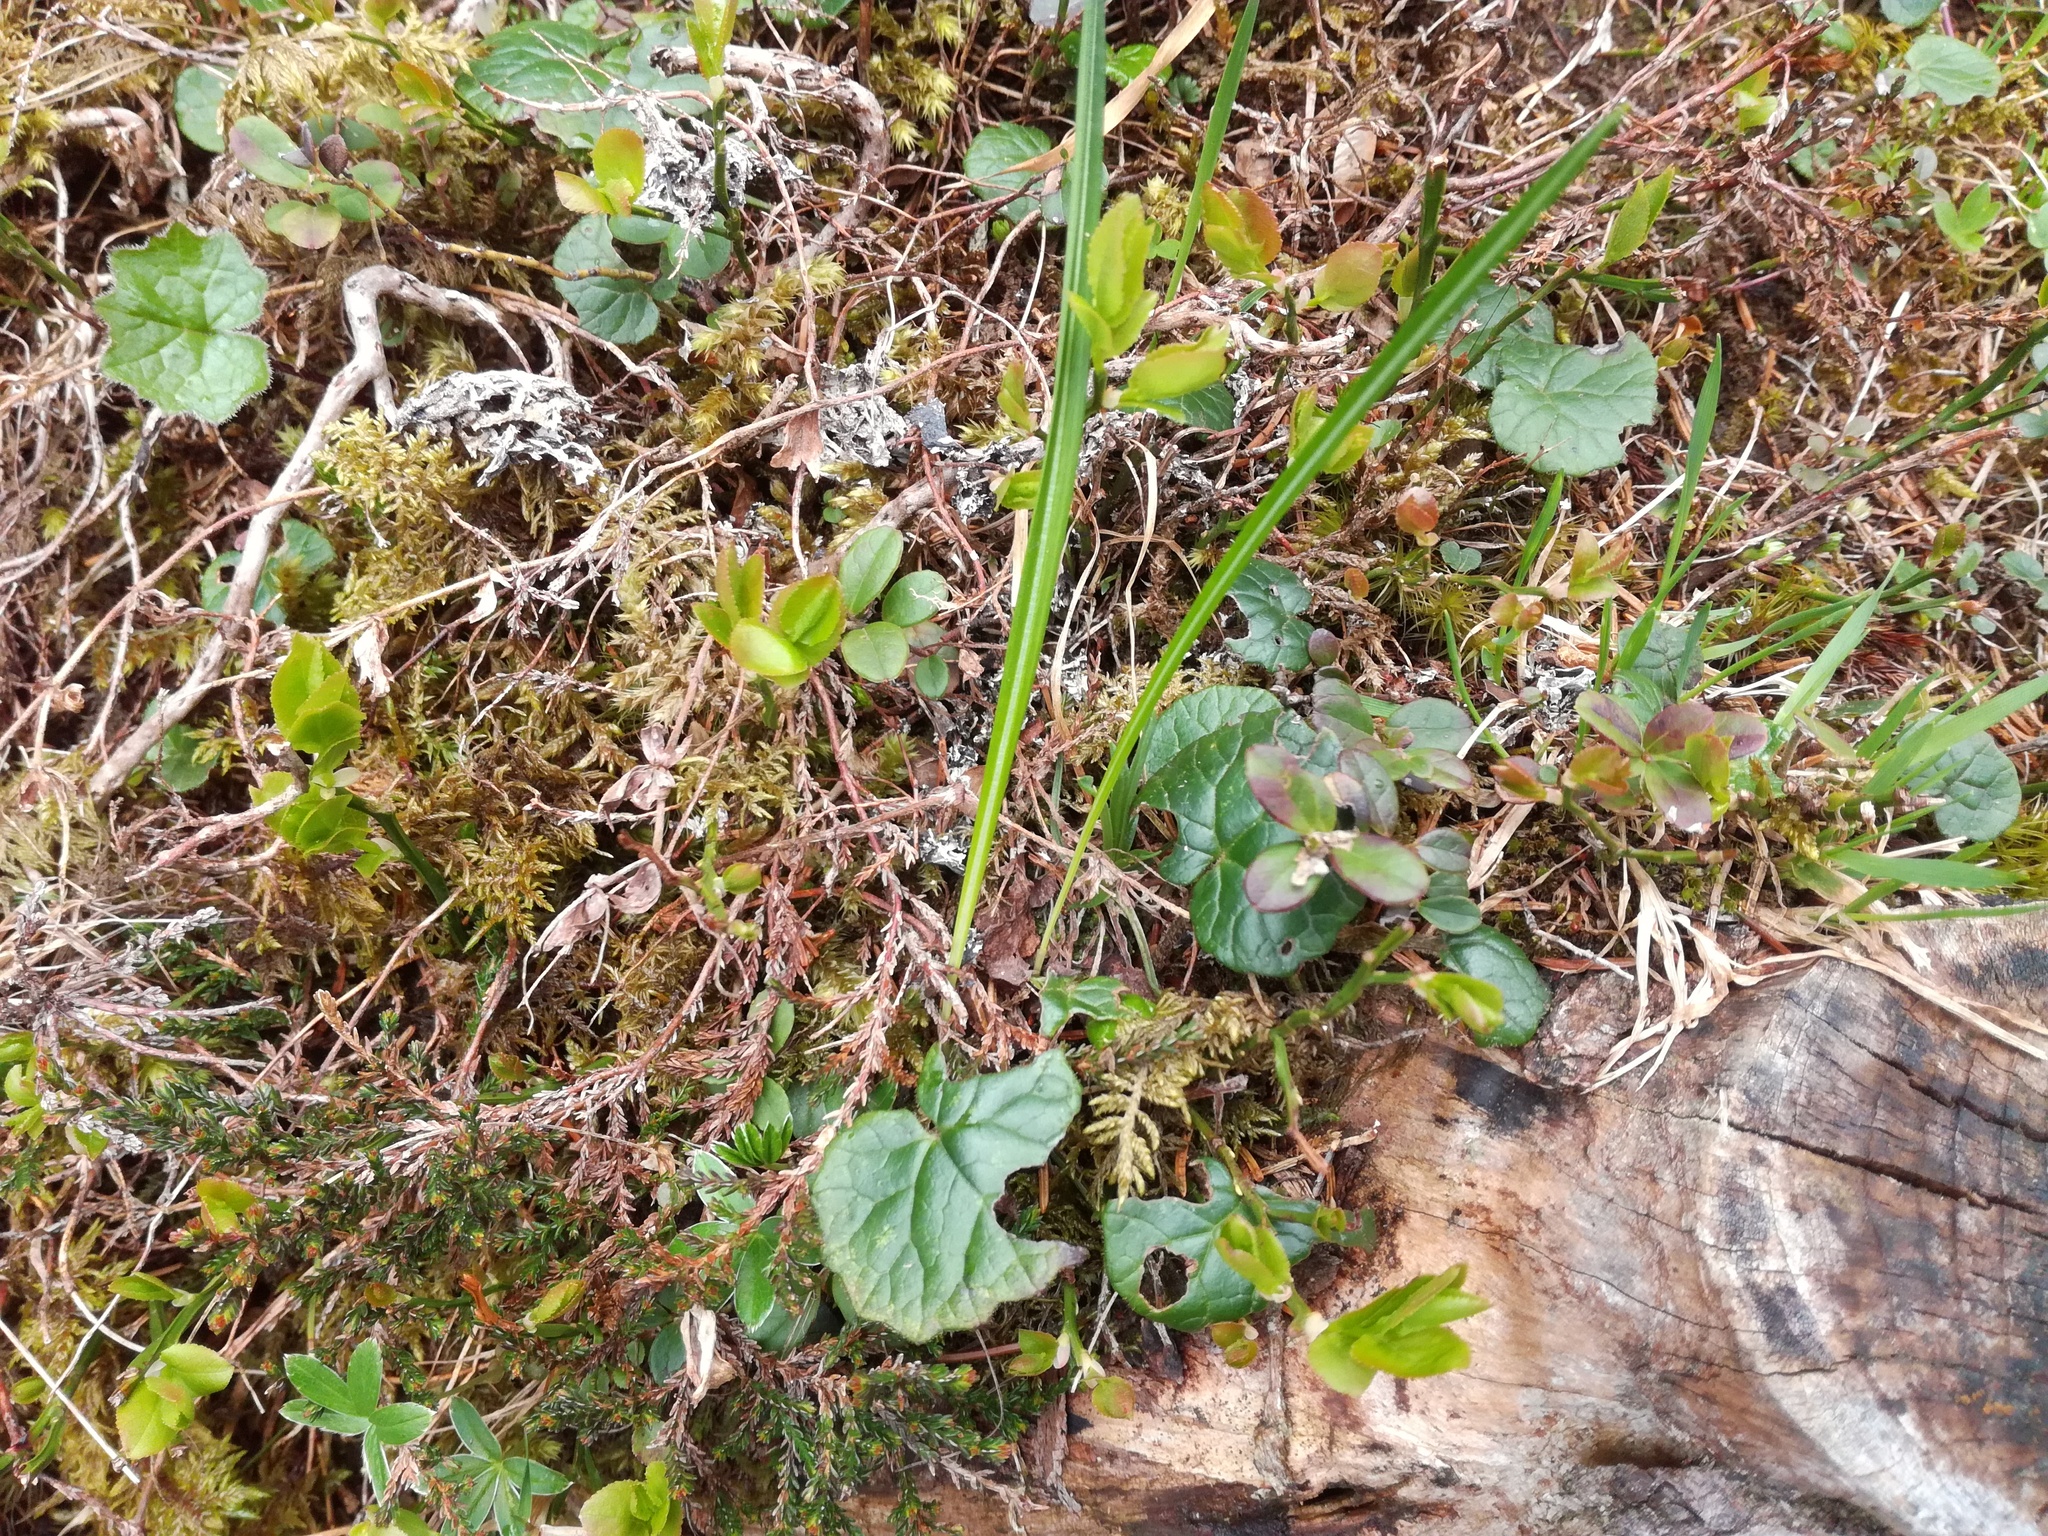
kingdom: Plantae
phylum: Tracheophyta
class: Magnoliopsida
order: Ericales
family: Ericaceae
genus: Vaccinium
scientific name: Vaccinium vitis-idaea
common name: Cowberry
